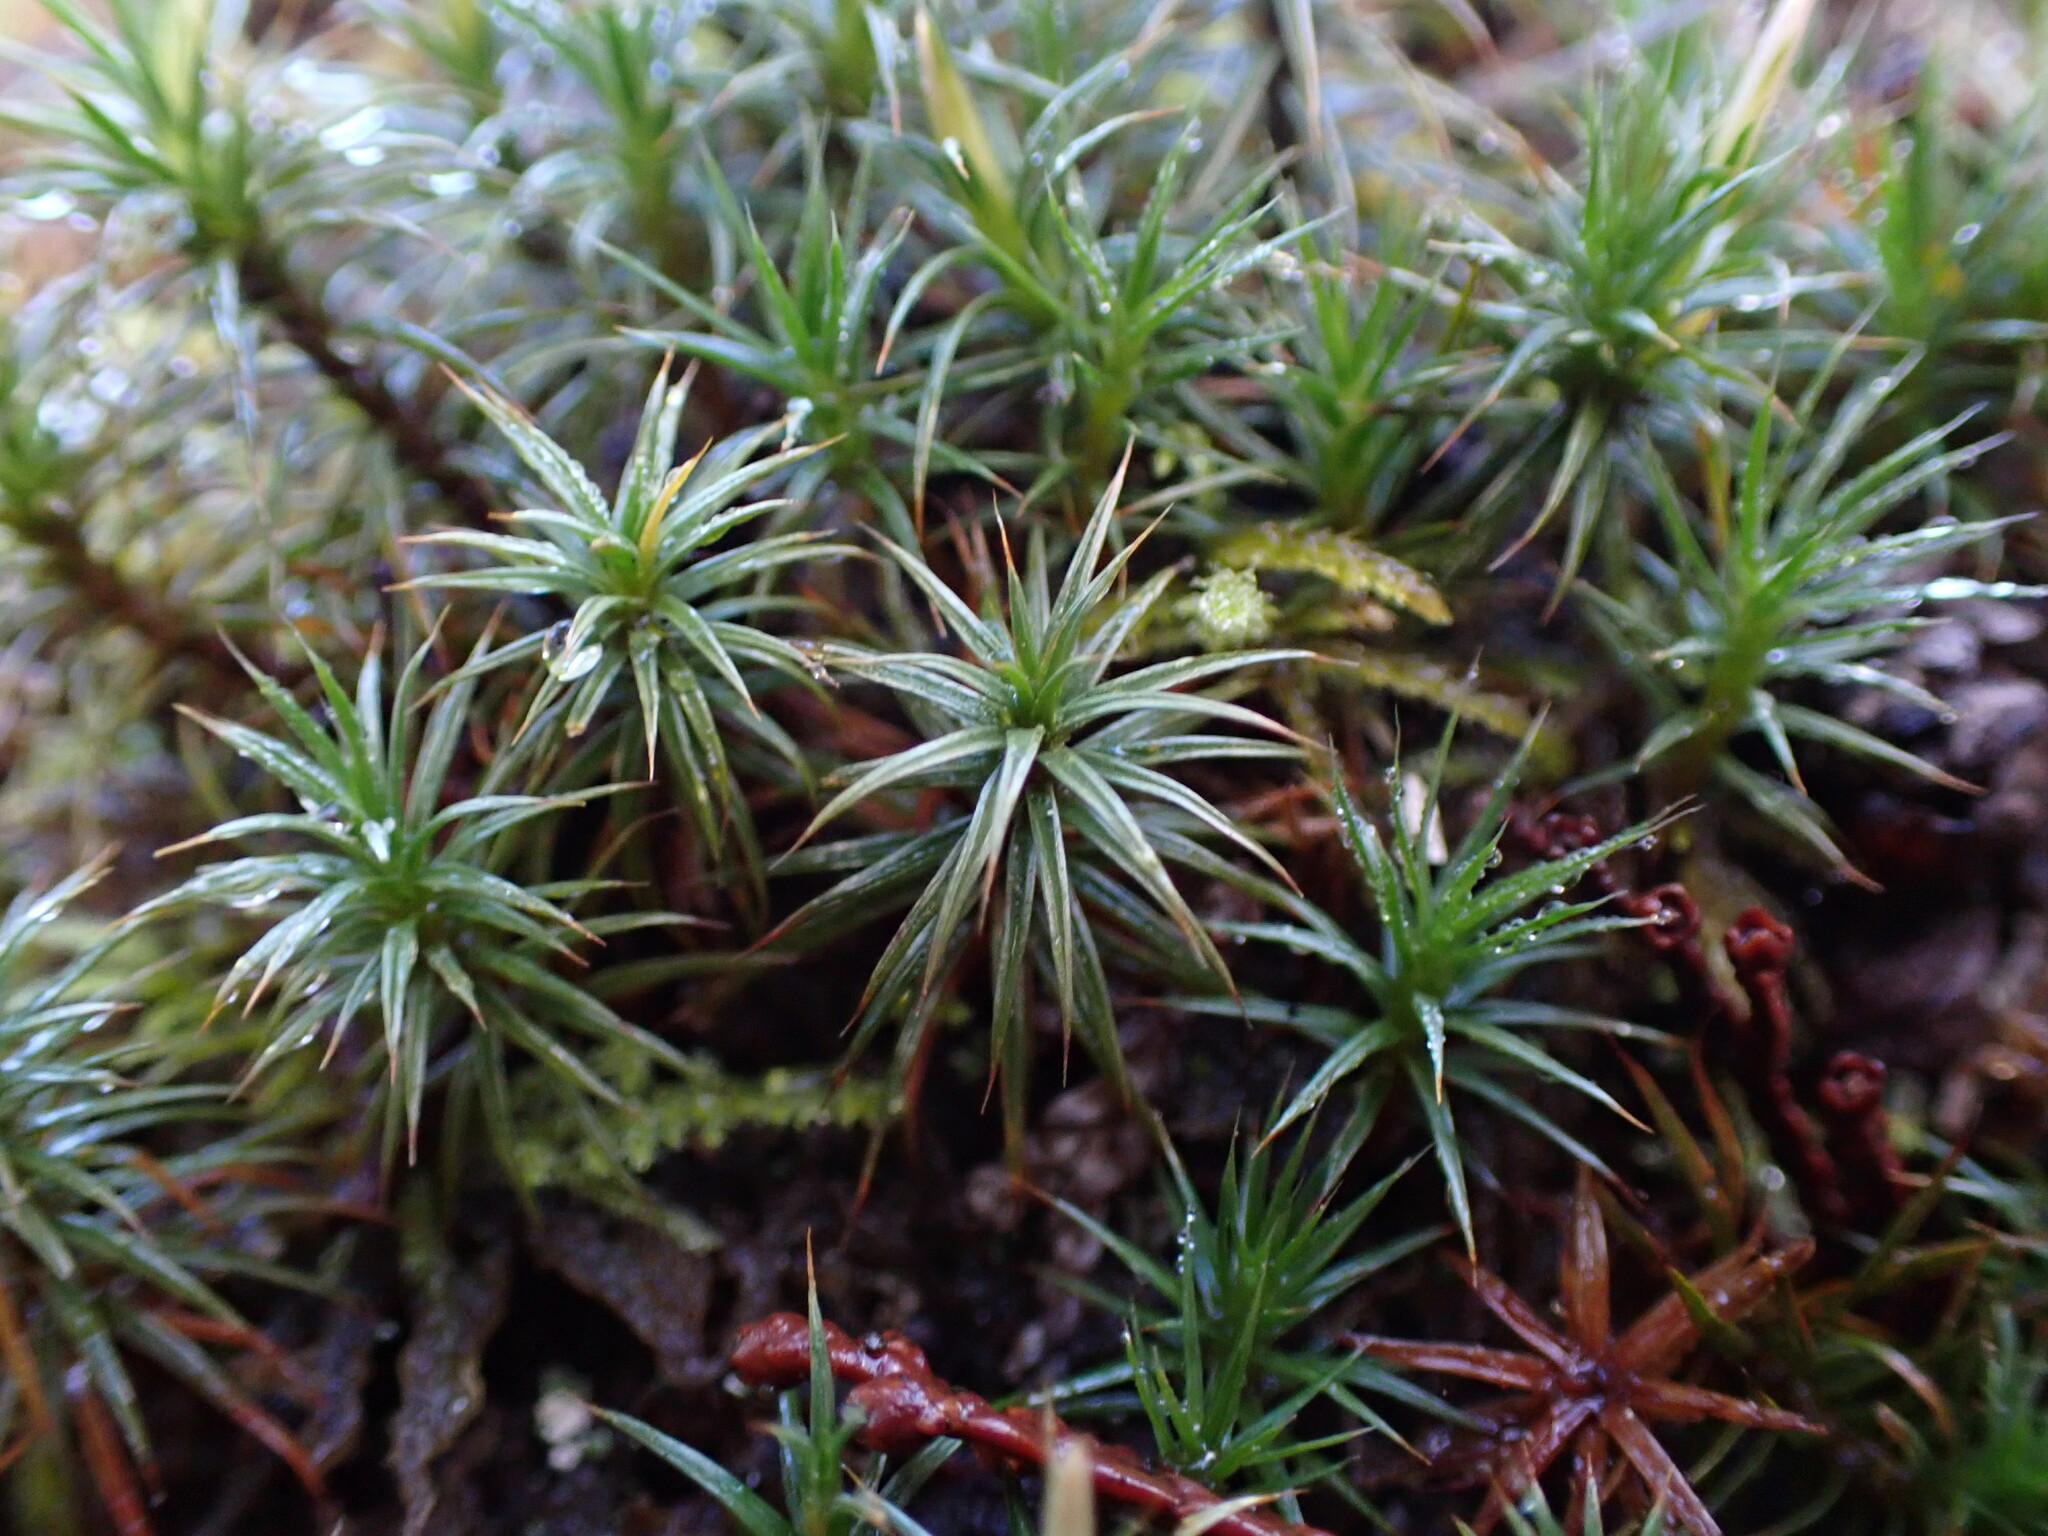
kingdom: Plantae
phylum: Bryophyta
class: Polytrichopsida
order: Polytrichales
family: Polytrichaceae
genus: Polytrichum
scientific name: Polytrichum juniperinum
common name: Juniper haircap moss
